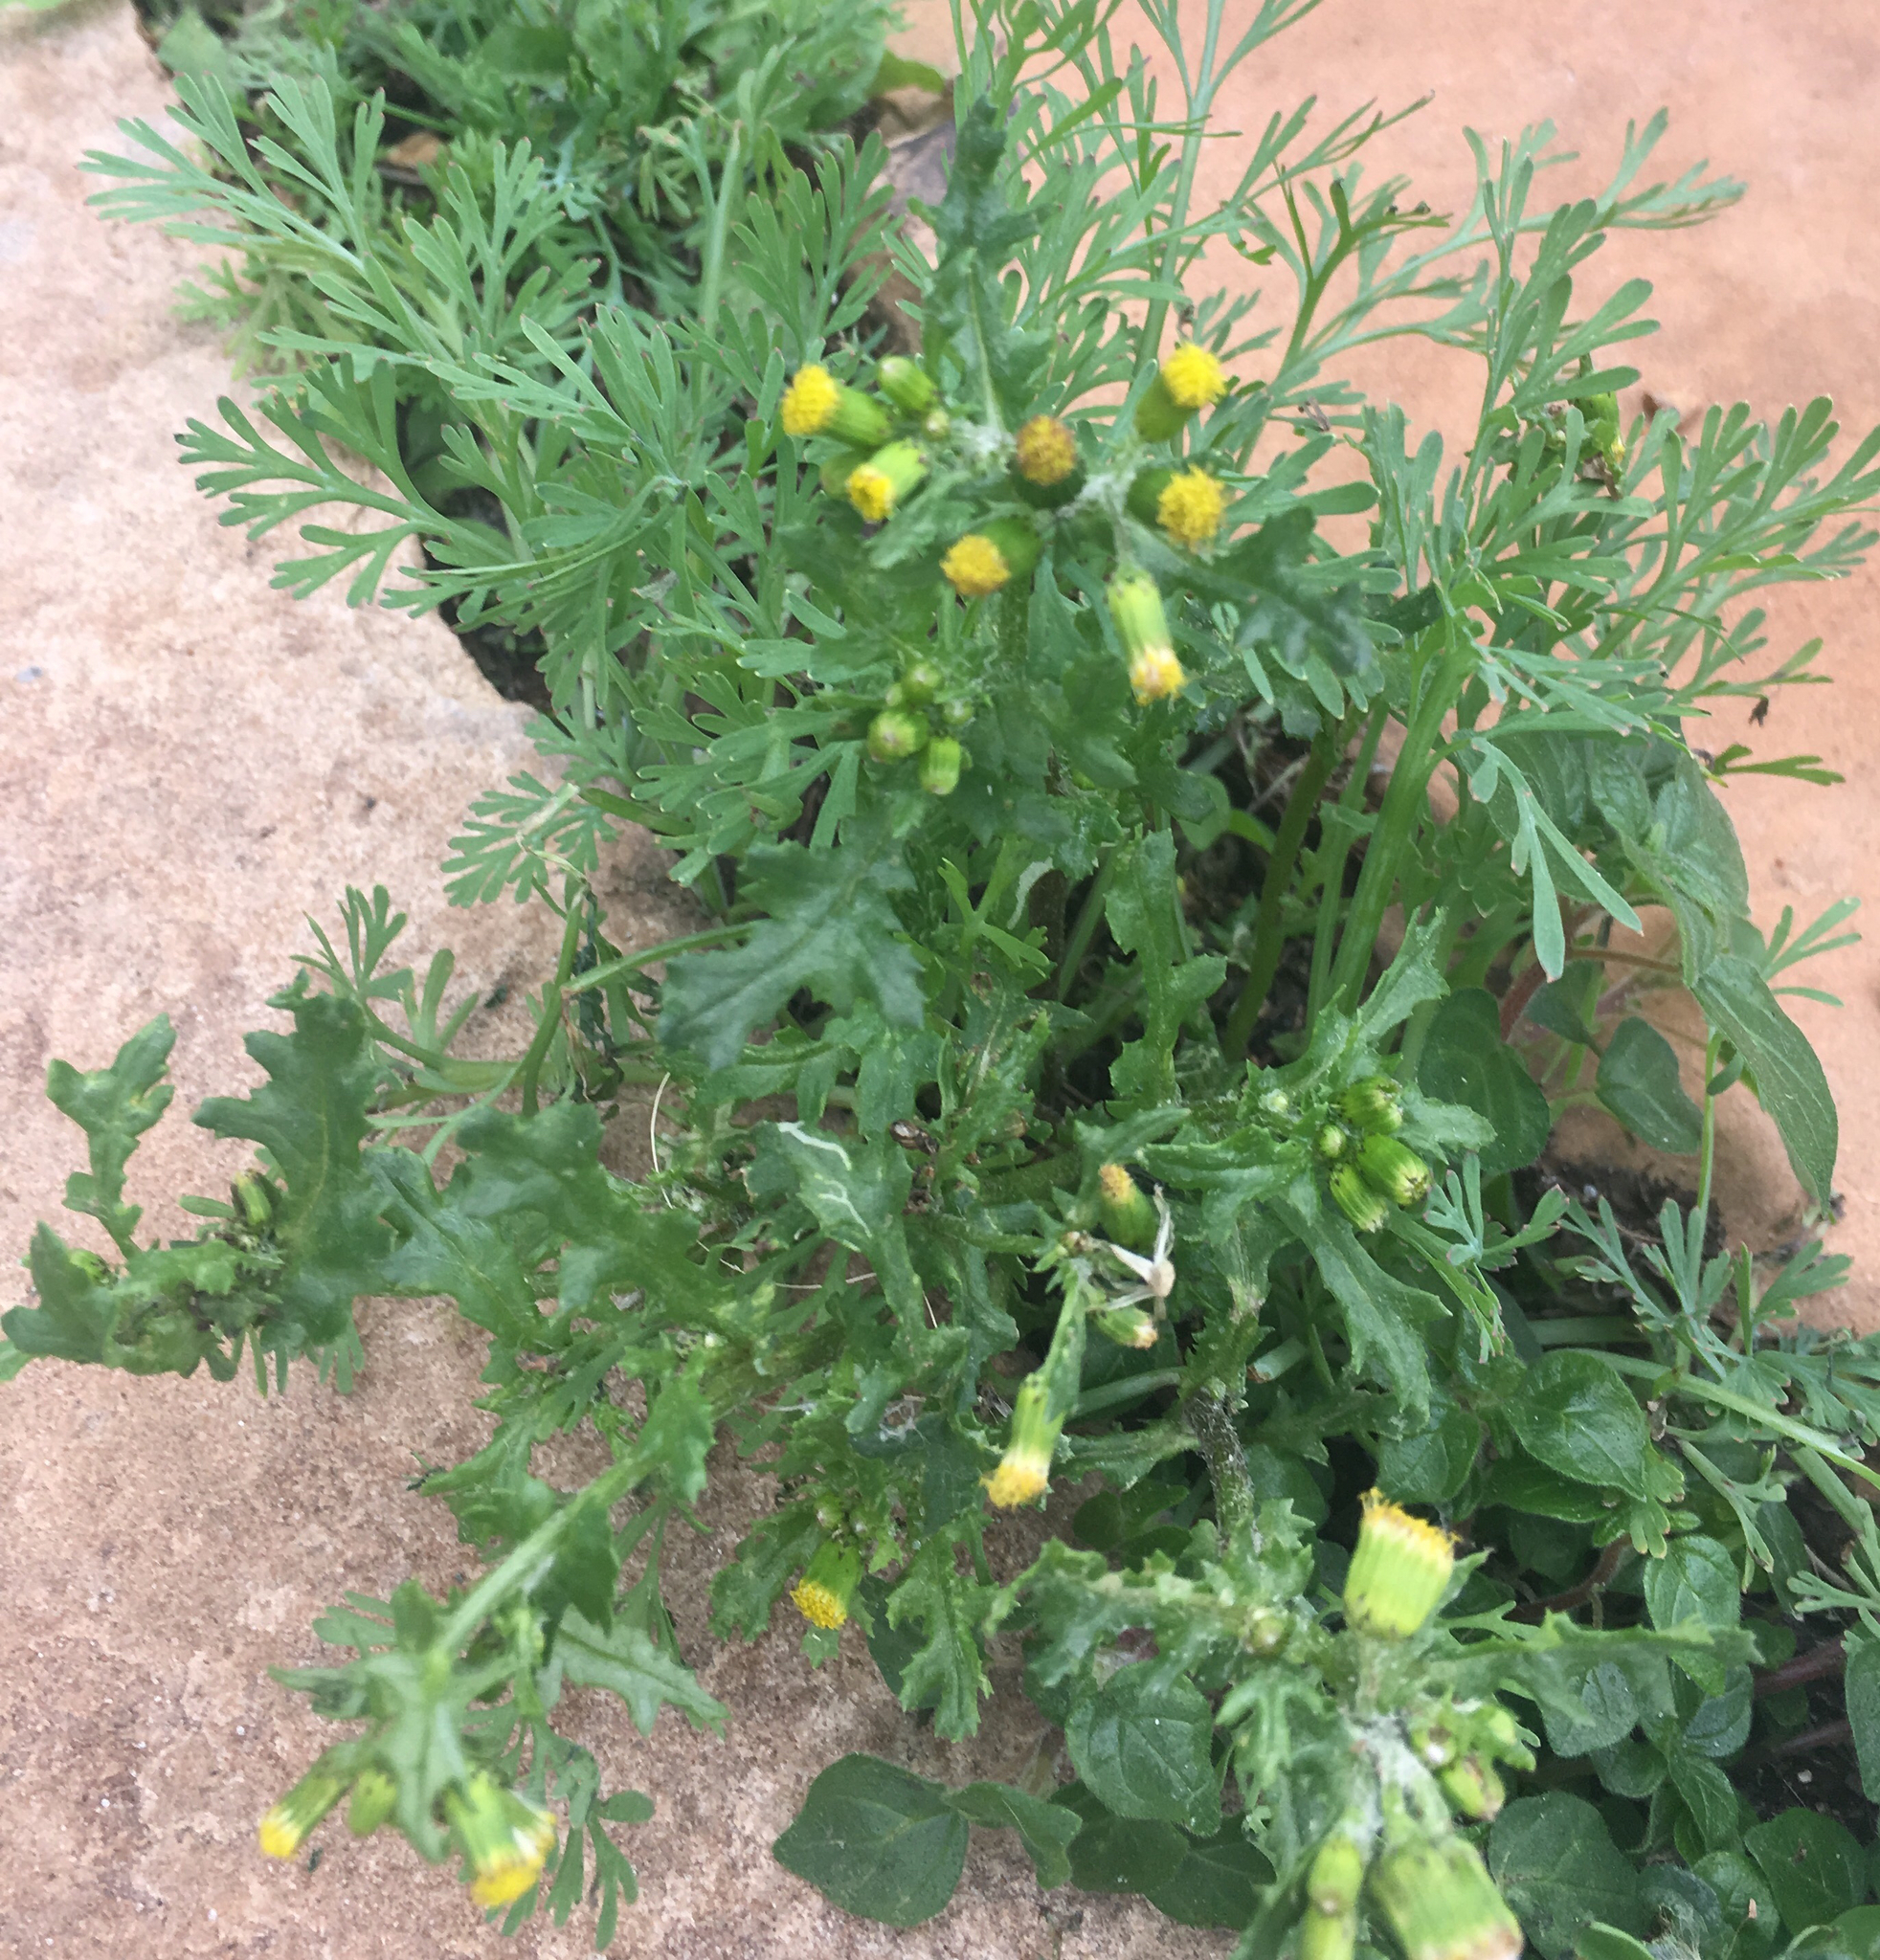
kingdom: Plantae
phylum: Tracheophyta
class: Magnoliopsida
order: Asterales
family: Asteraceae
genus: Senecio
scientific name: Senecio vulgaris
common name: Old-man-in-the-spring
